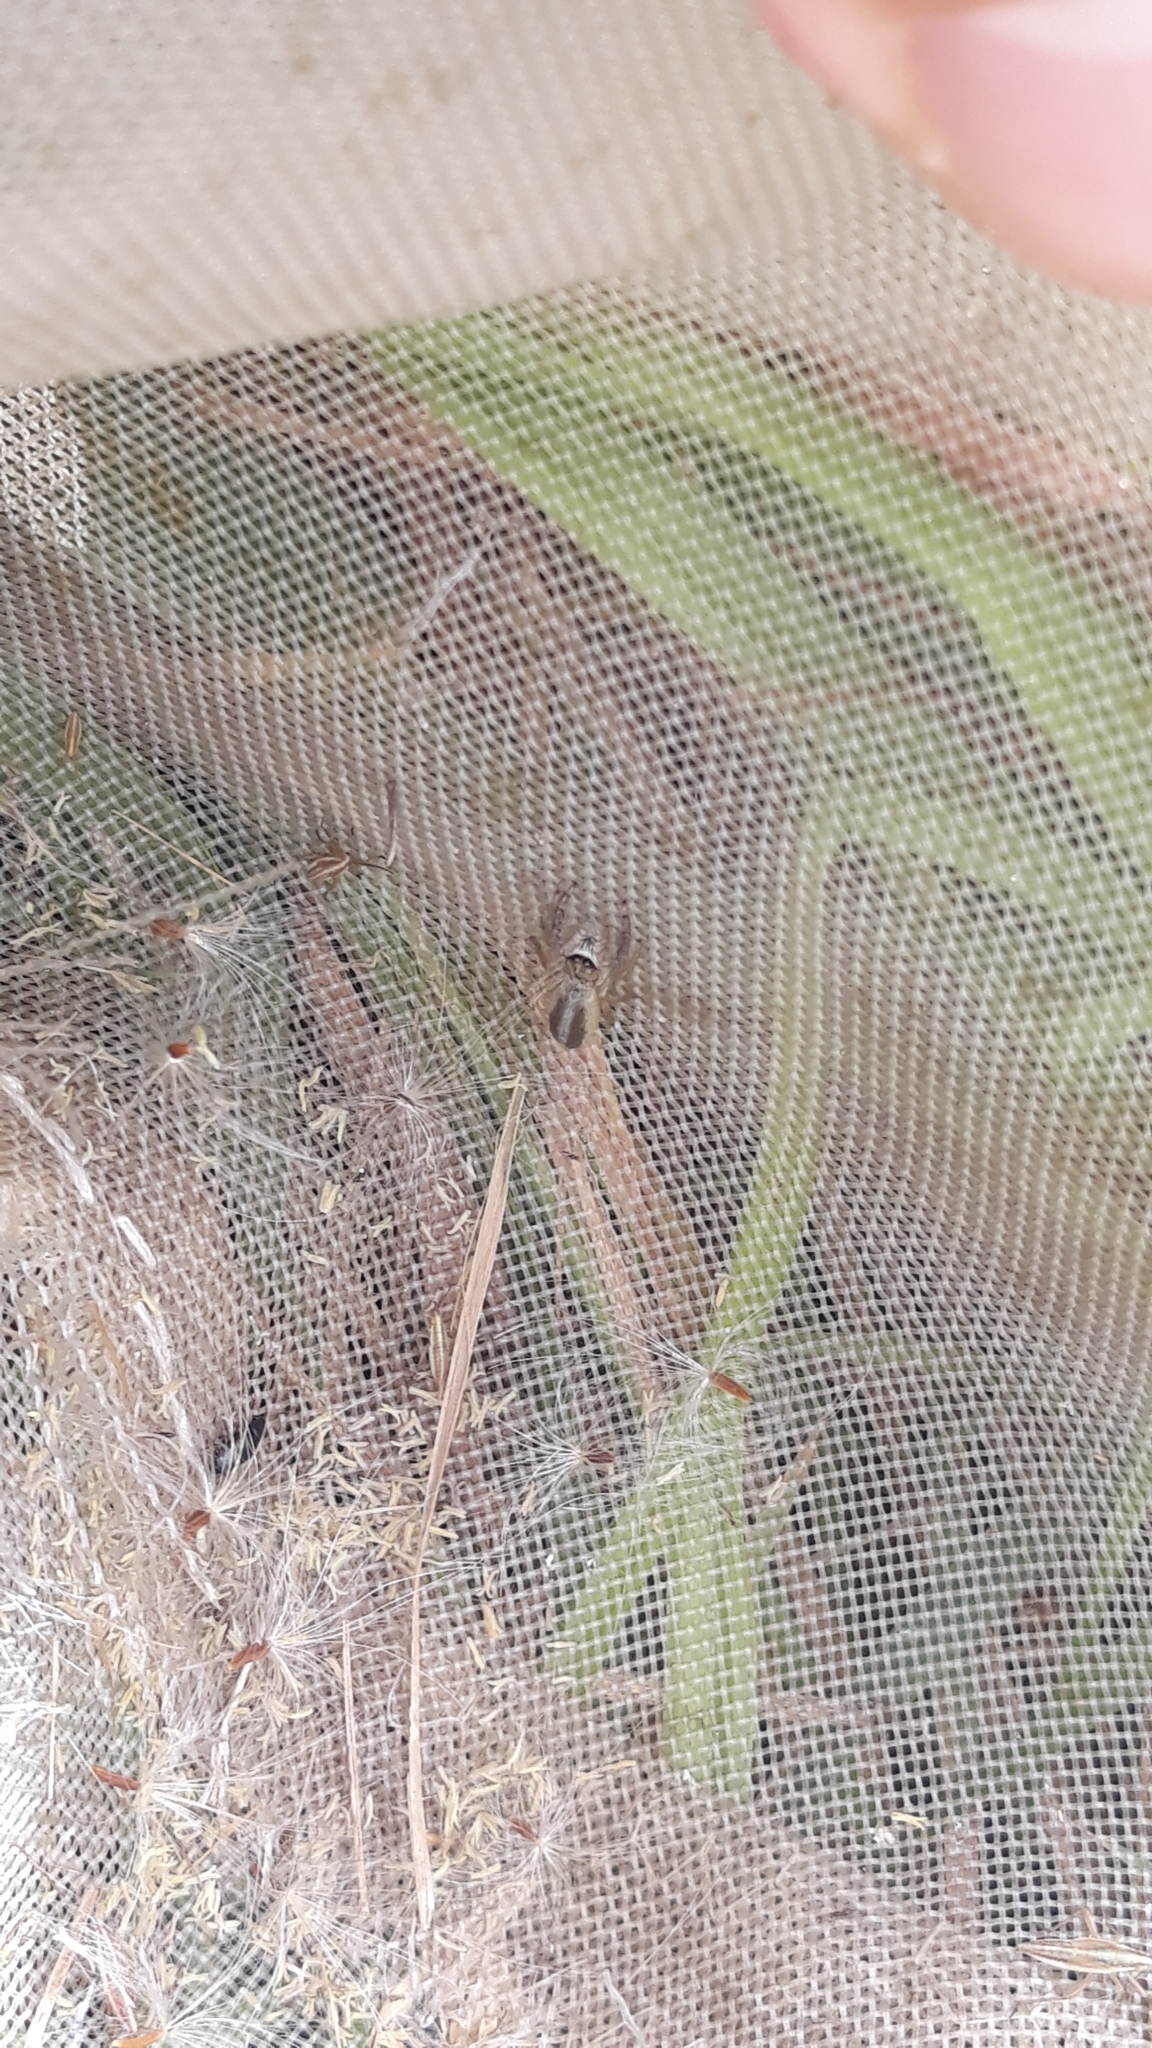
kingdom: Animalia
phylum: Arthropoda
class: Arachnida
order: Araneae
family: Salticidae
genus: Mendoza
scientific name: Mendoza canestrinii
